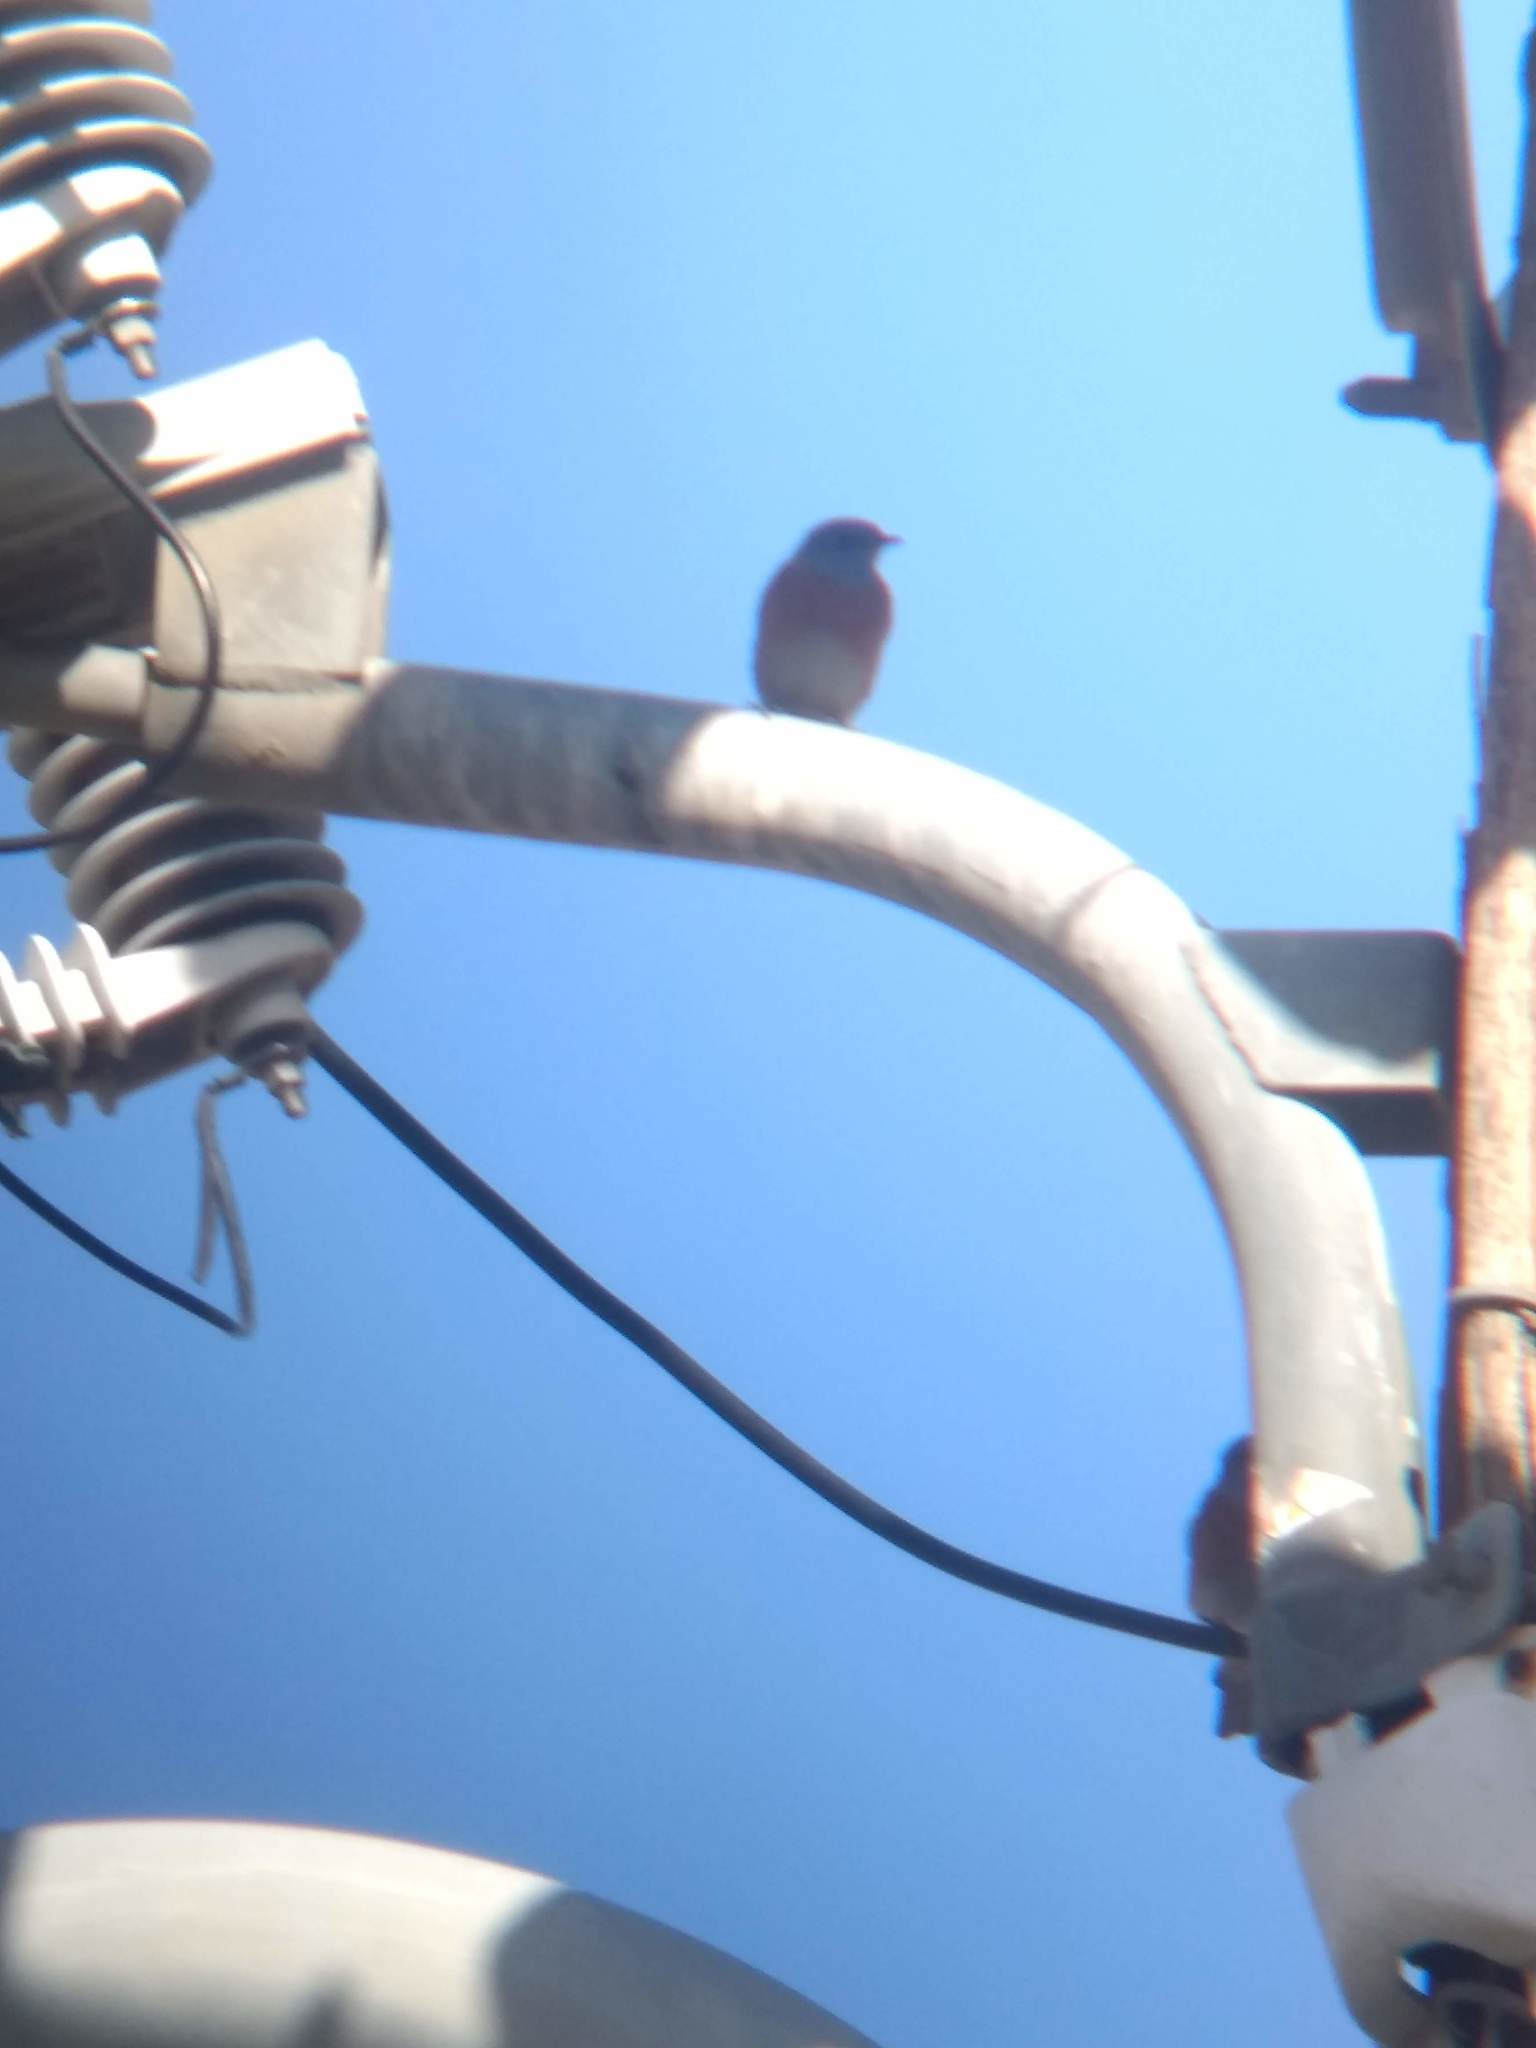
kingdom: Animalia
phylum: Chordata
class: Aves
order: Passeriformes
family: Turdidae
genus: Sialia
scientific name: Sialia mexicana
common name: Western bluebird
